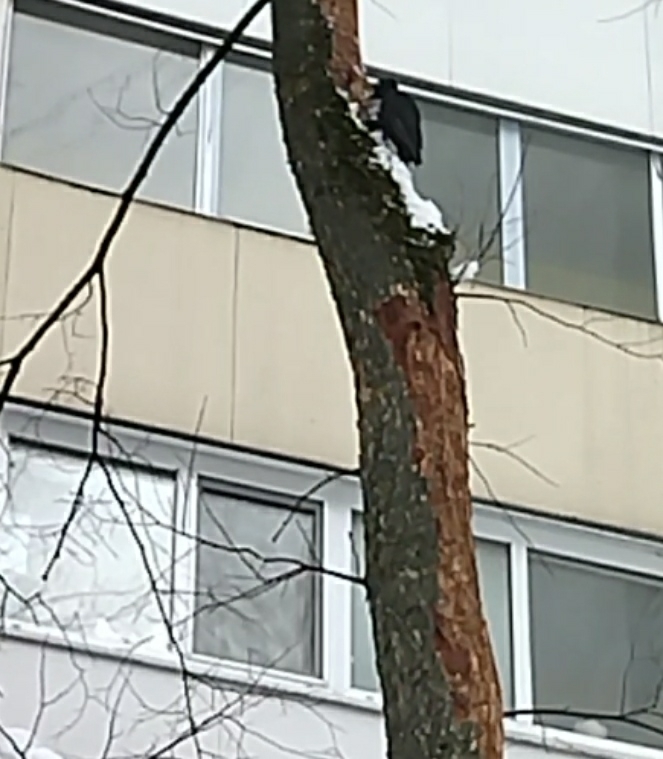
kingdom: Animalia
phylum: Chordata
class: Aves
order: Piciformes
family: Picidae
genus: Dryocopus
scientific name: Dryocopus martius
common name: Black woodpecker
